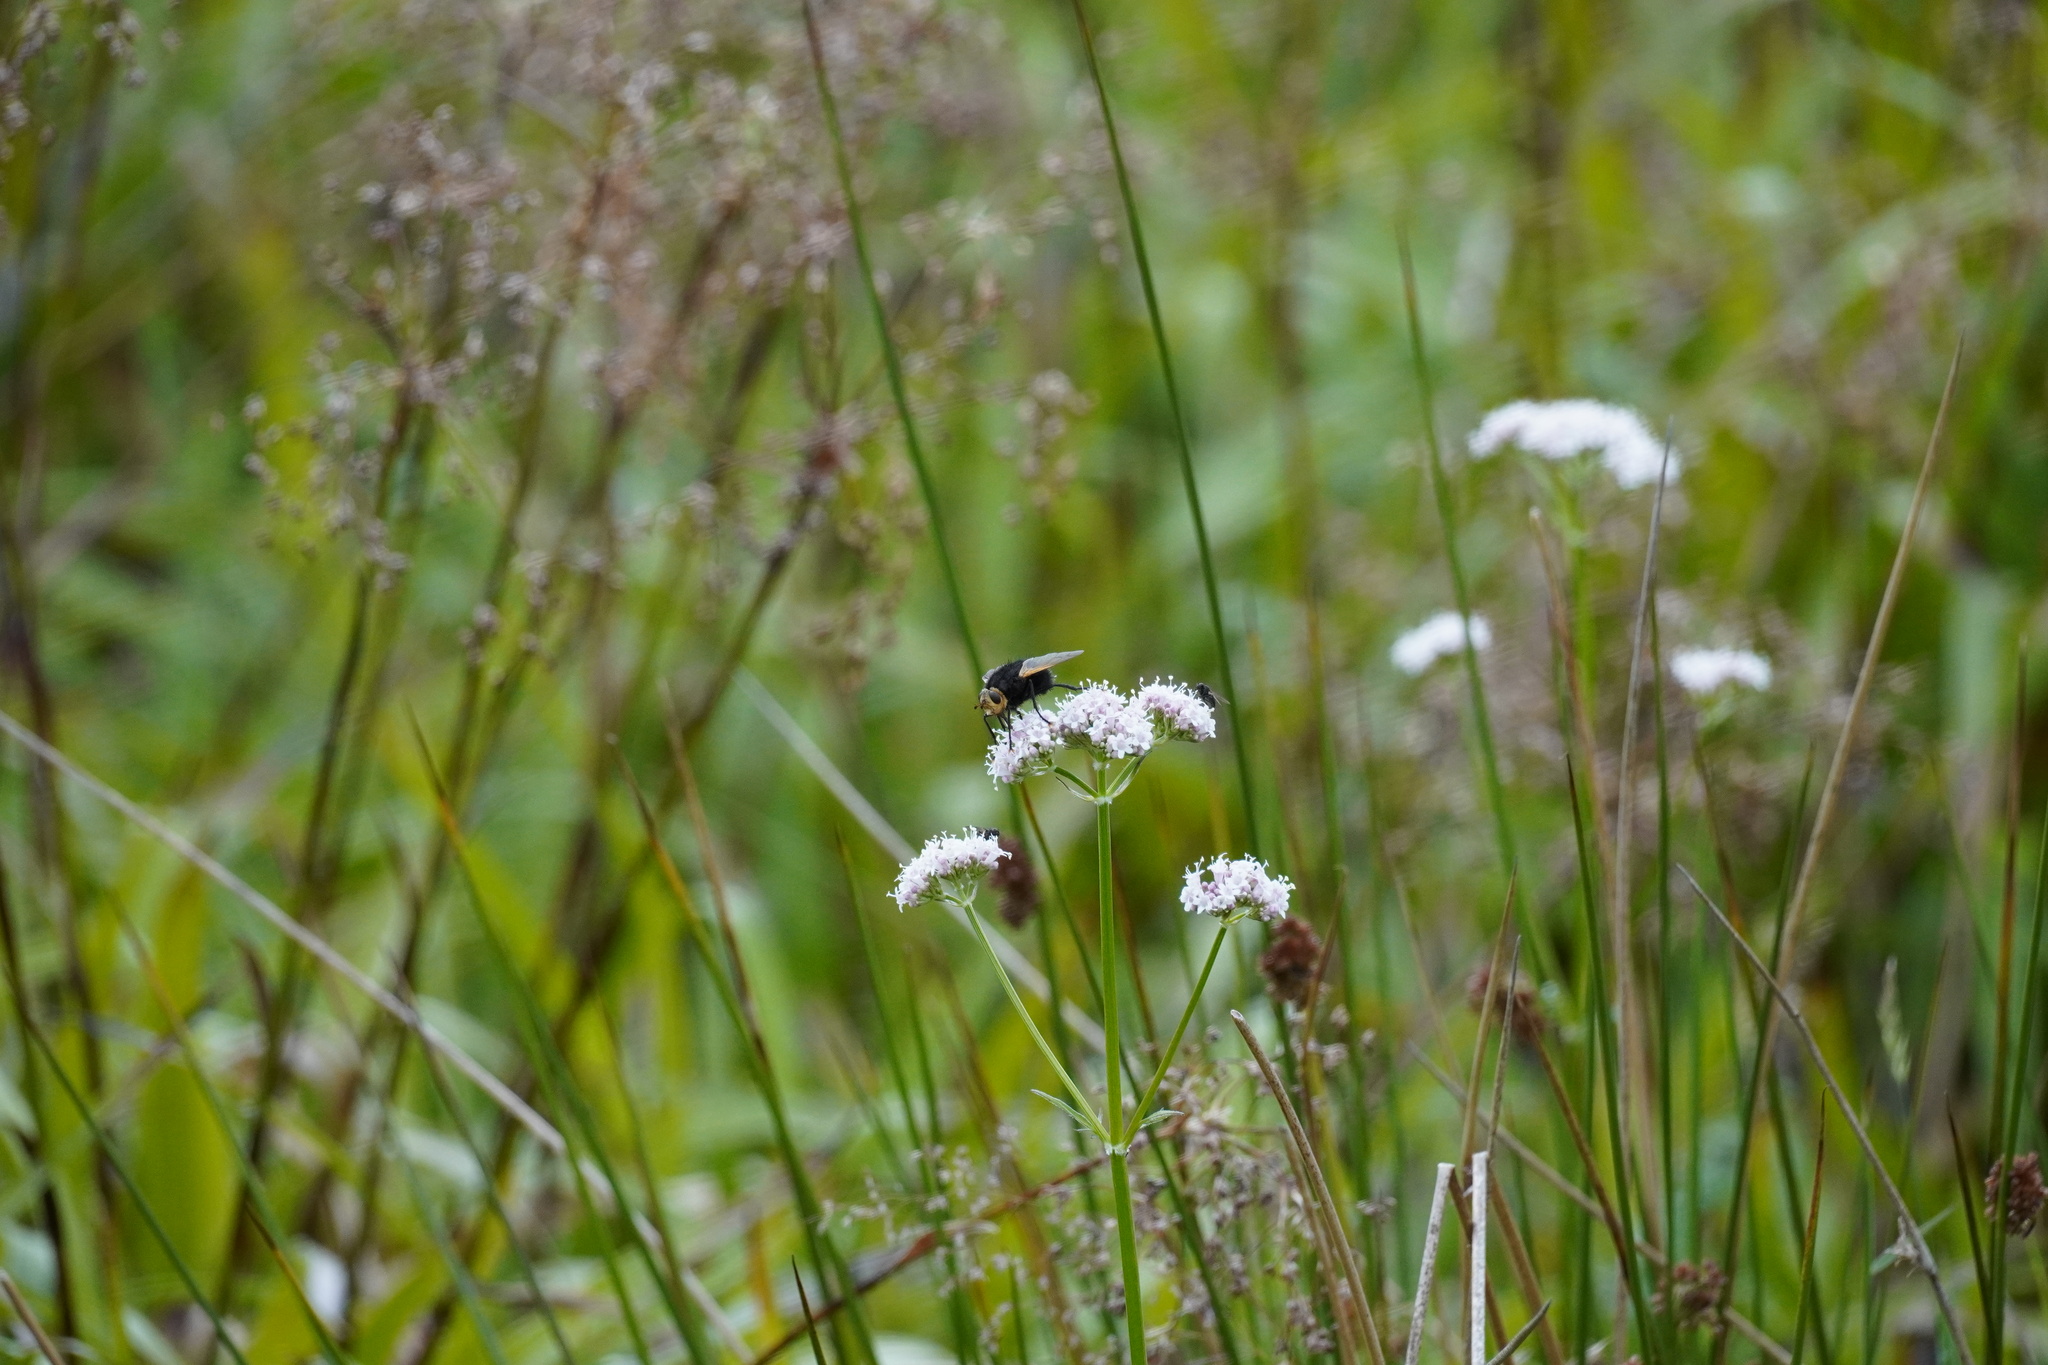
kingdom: Animalia
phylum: Arthropoda
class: Insecta
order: Diptera
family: Tachinidae
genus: Tachina
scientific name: Tachina grossa
